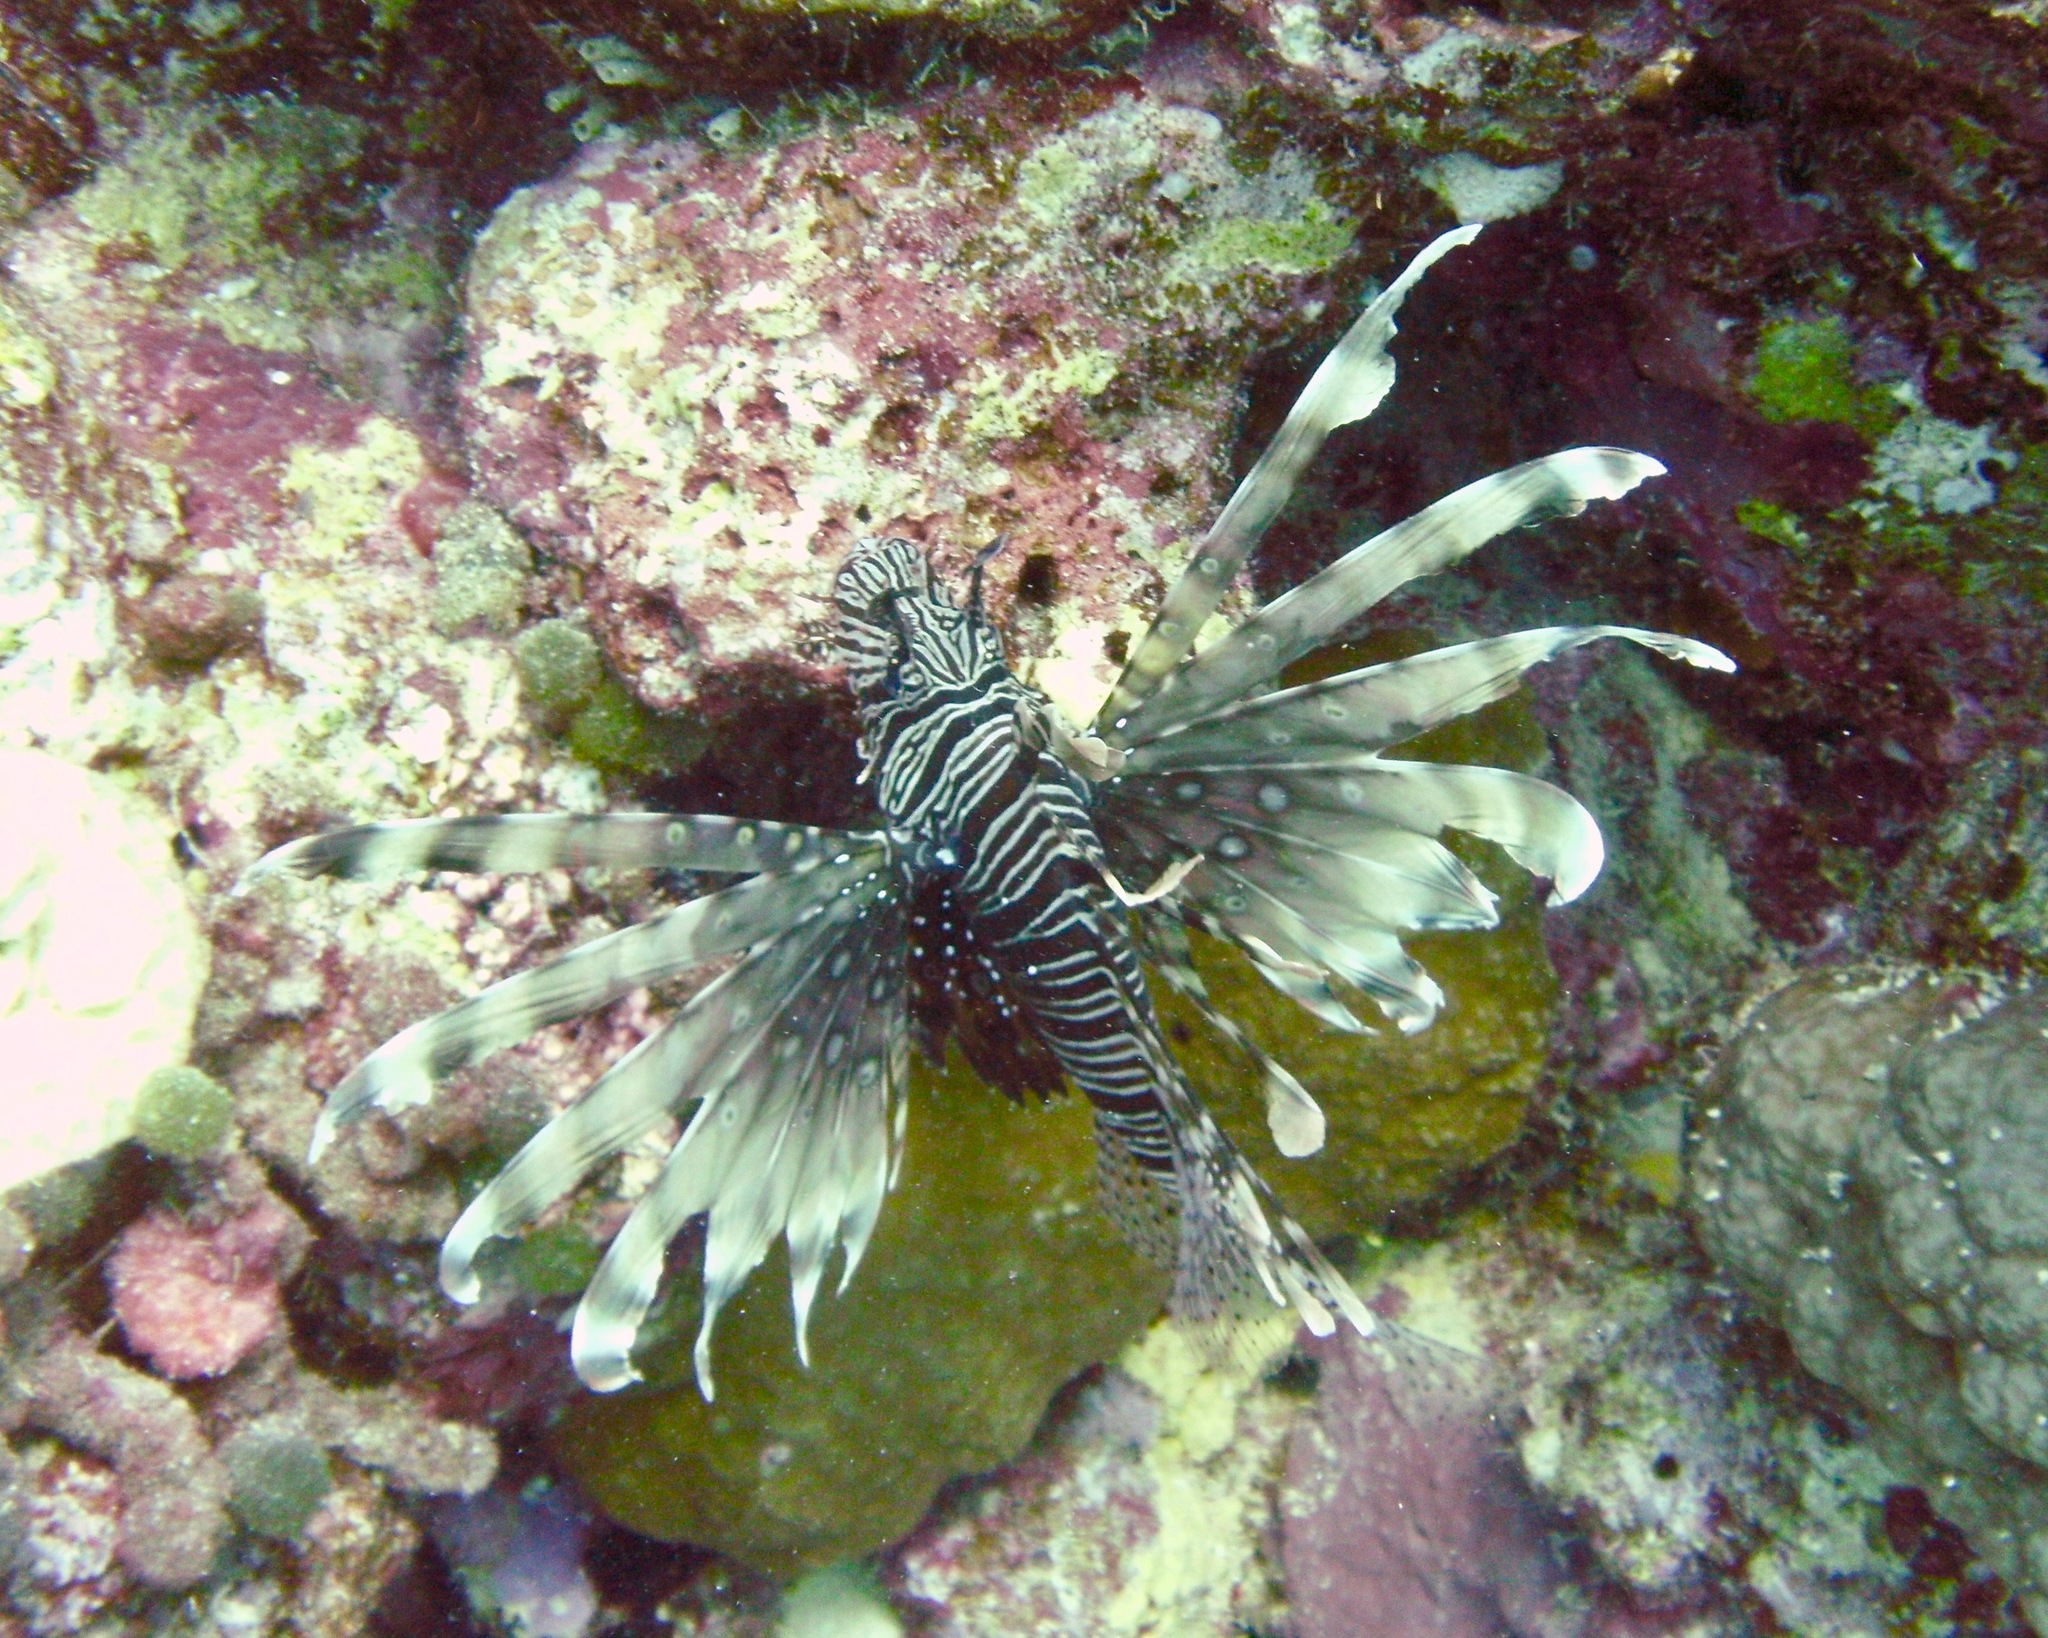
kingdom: Animalia
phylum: Chordata
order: Scorpaeniformes
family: Scorpaenidae
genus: Pterois
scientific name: Pterois miles
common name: Devil firefish
